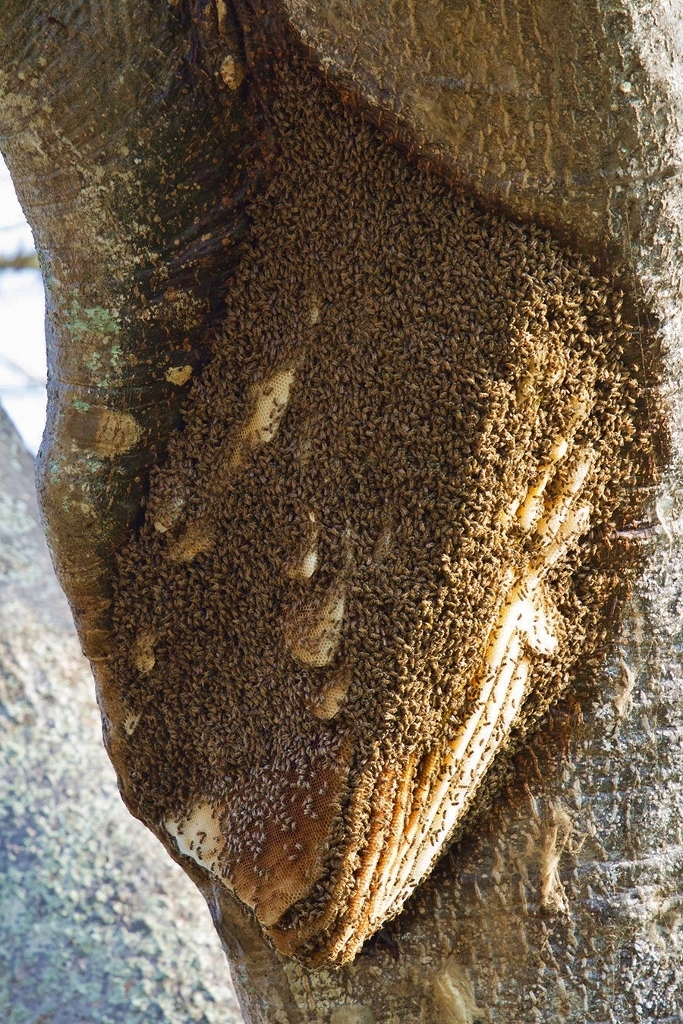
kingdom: Animalia
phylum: Arthropoda
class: Insecta
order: Hymenoptera
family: Apidae
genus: Apis
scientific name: Apis mellifera
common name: Honey bee
